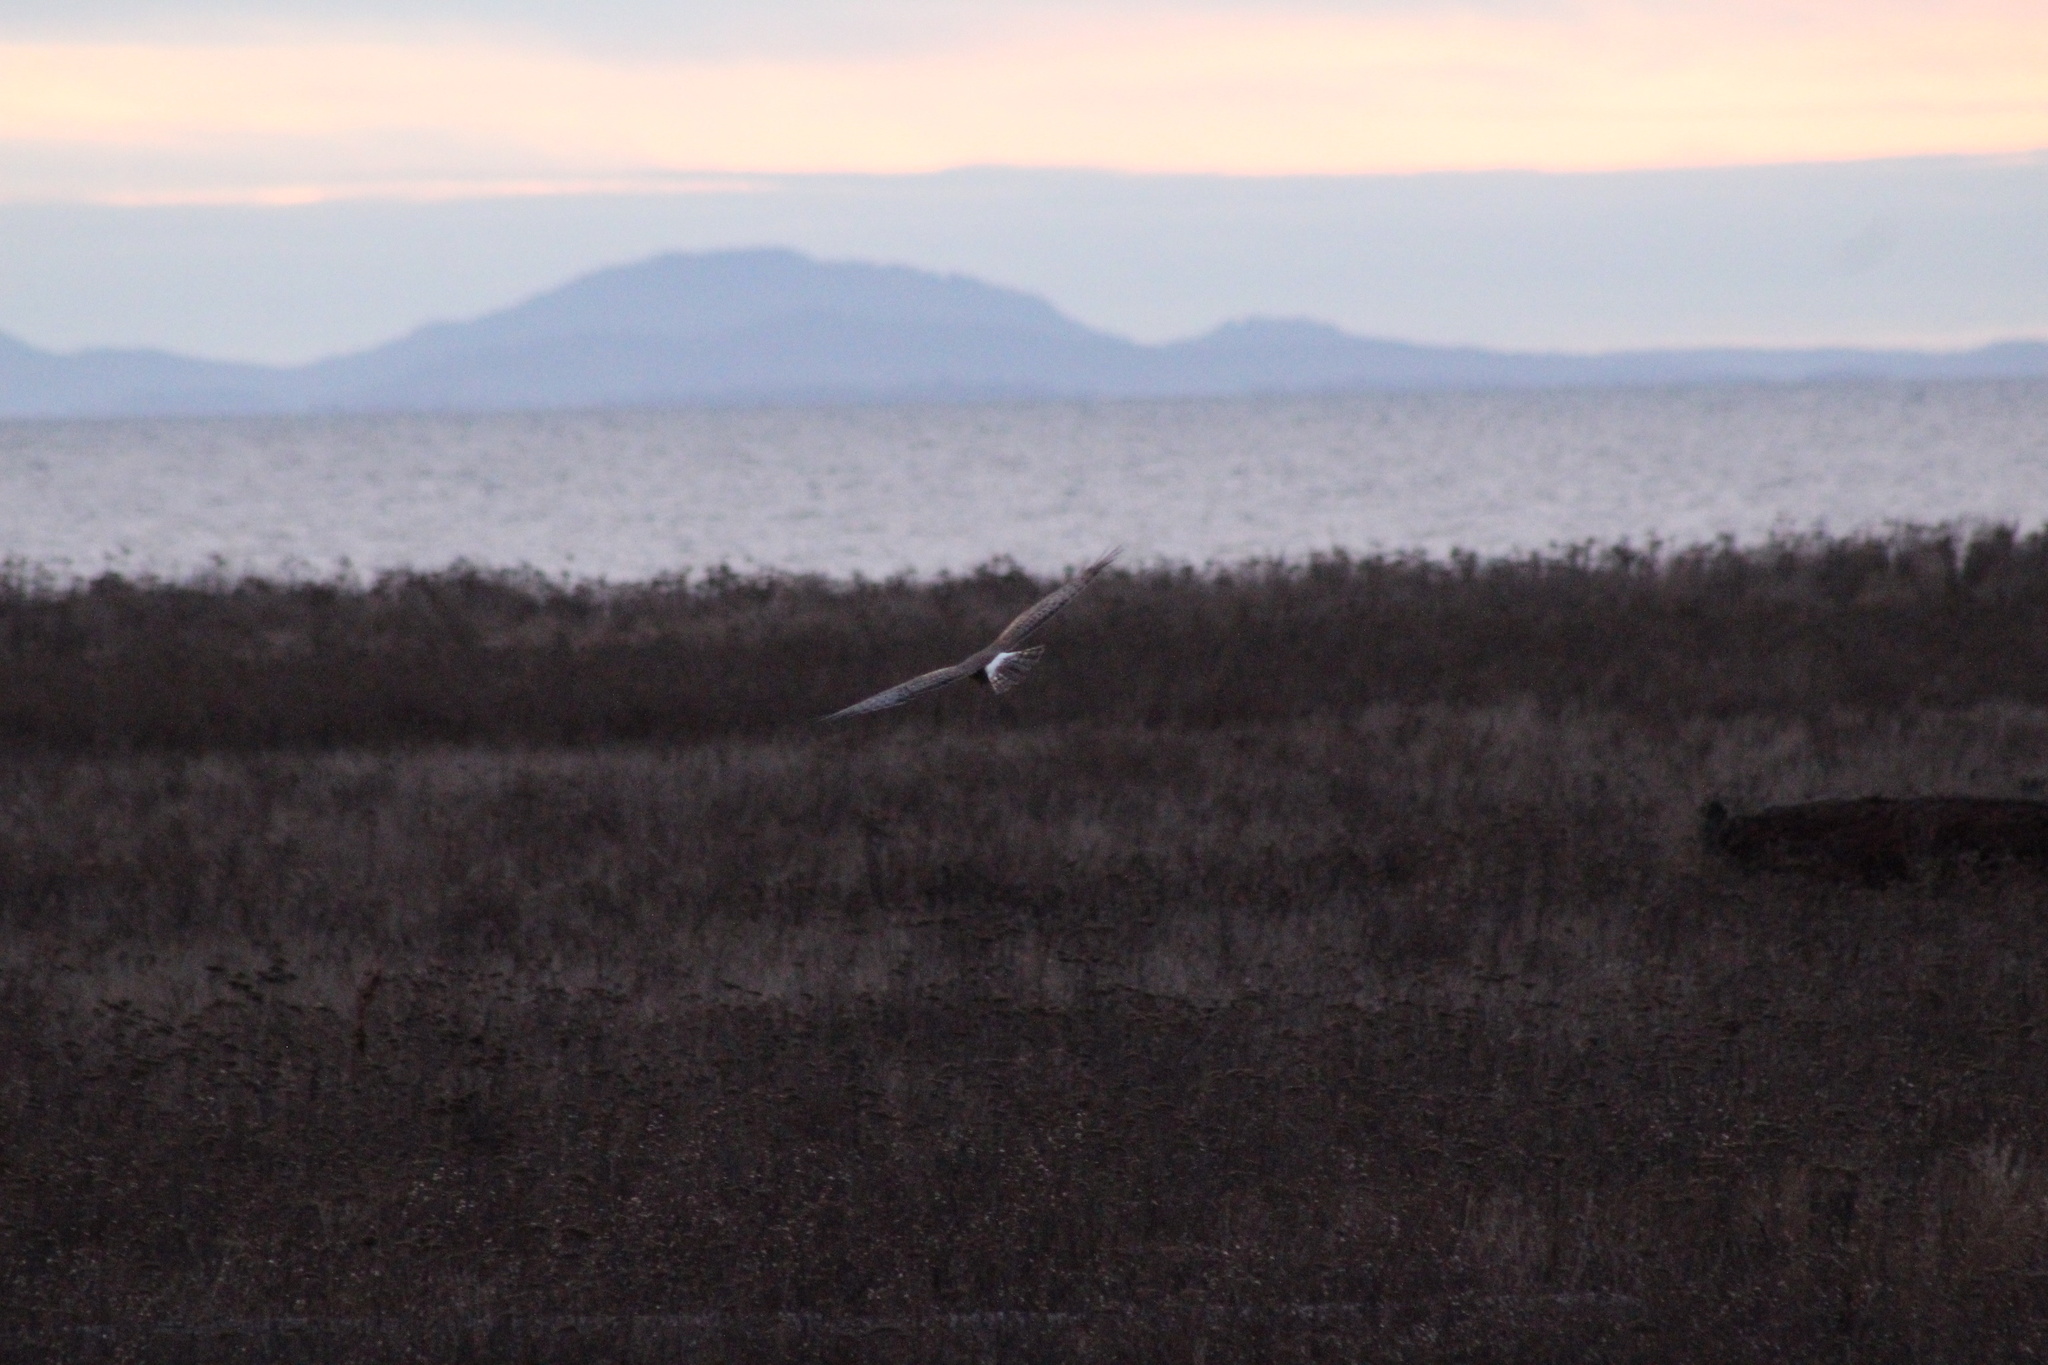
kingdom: Animalia
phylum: Chordata
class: Aves
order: Accipitriformes
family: Accipitridae
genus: Circus
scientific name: Circus cyaneus
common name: Hen harrier
